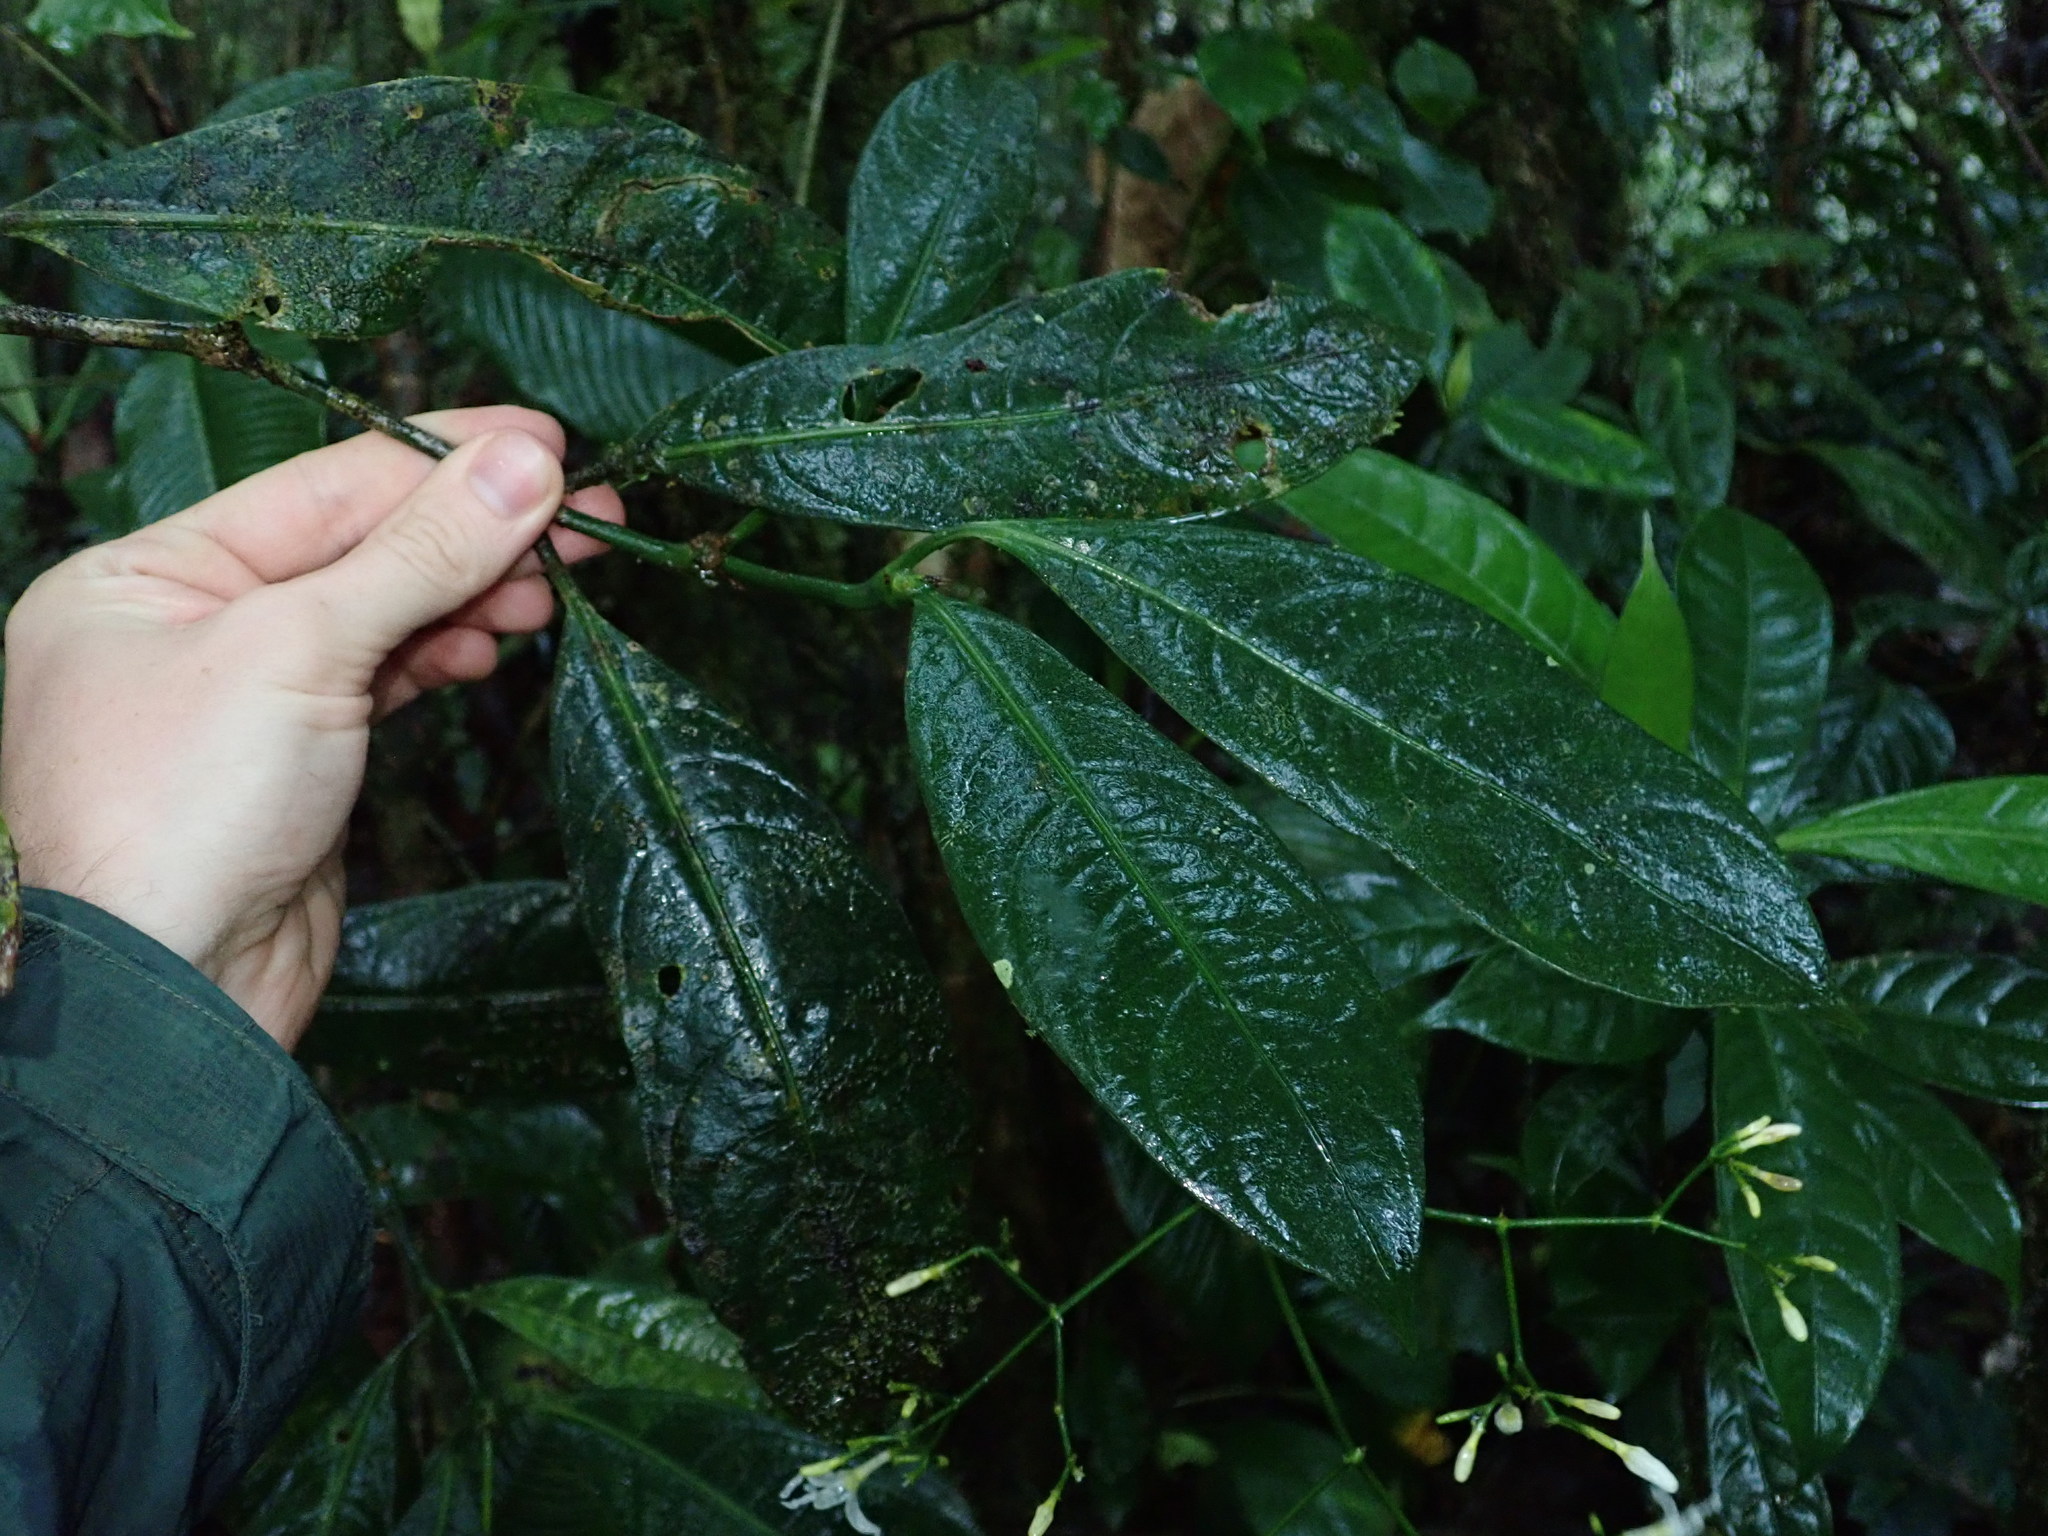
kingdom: Plantae
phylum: Tracheophyta
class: Magnoliopsida
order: Gentianales
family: Rubiaceae
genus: Rudgea
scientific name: Rudgea pendula
